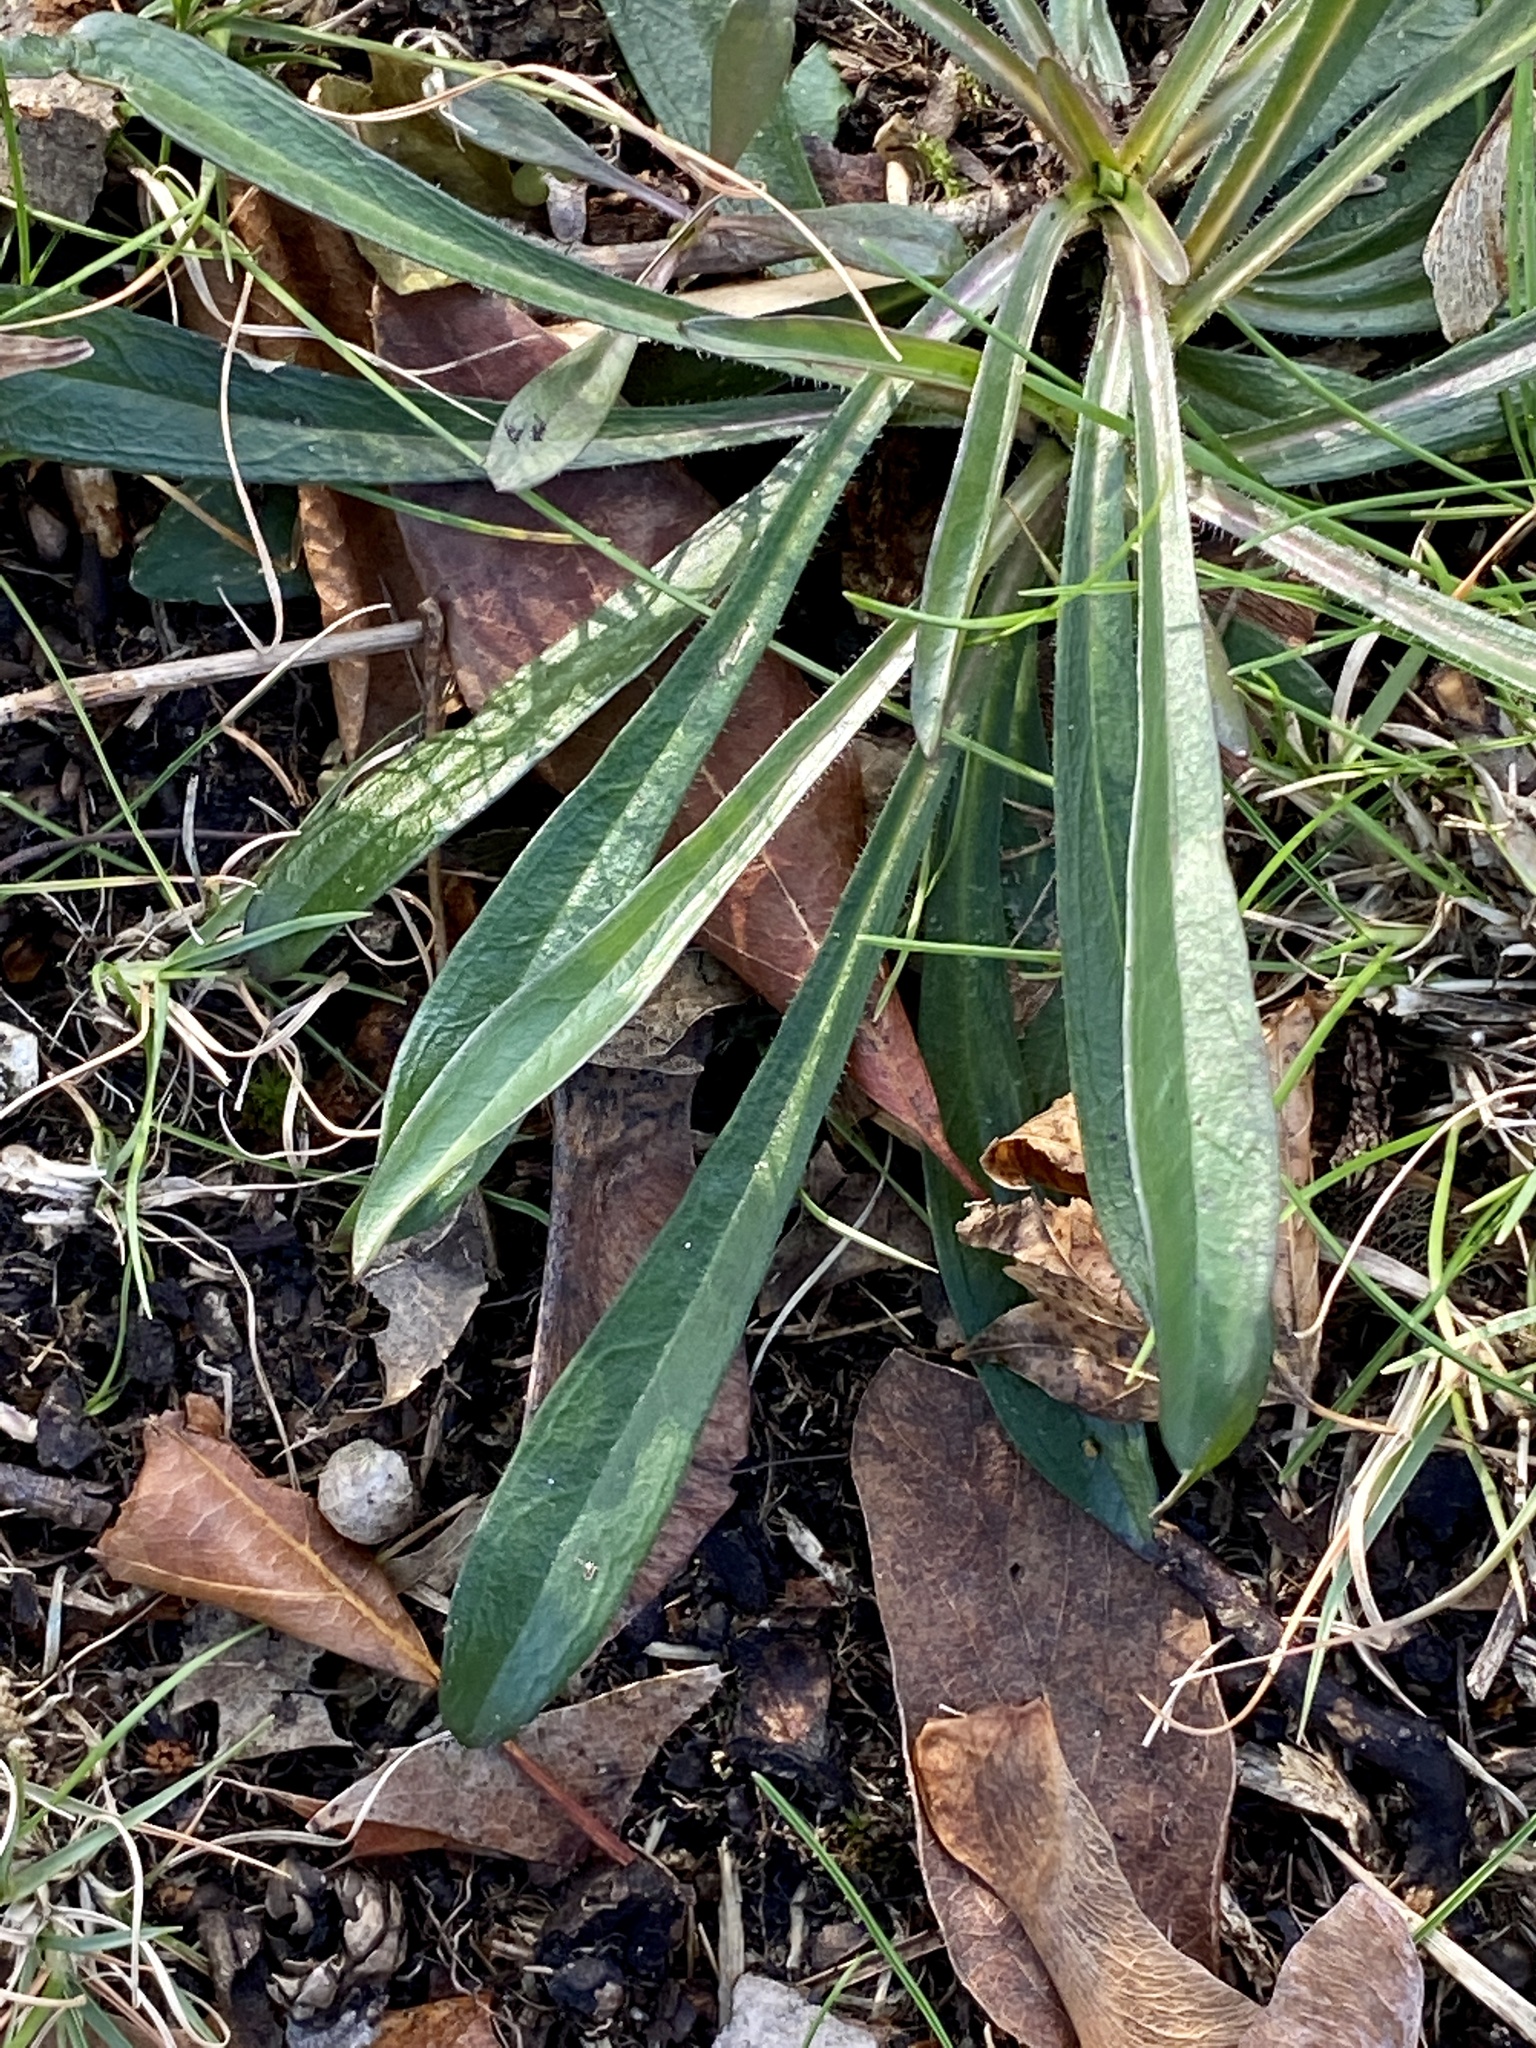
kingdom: Plantae
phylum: Tracheophyta
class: Magnoliopsida
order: Caryophyllales
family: Caryophyllaceae
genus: Dianthus
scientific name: Dianthus armeria
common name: Deptford pink
